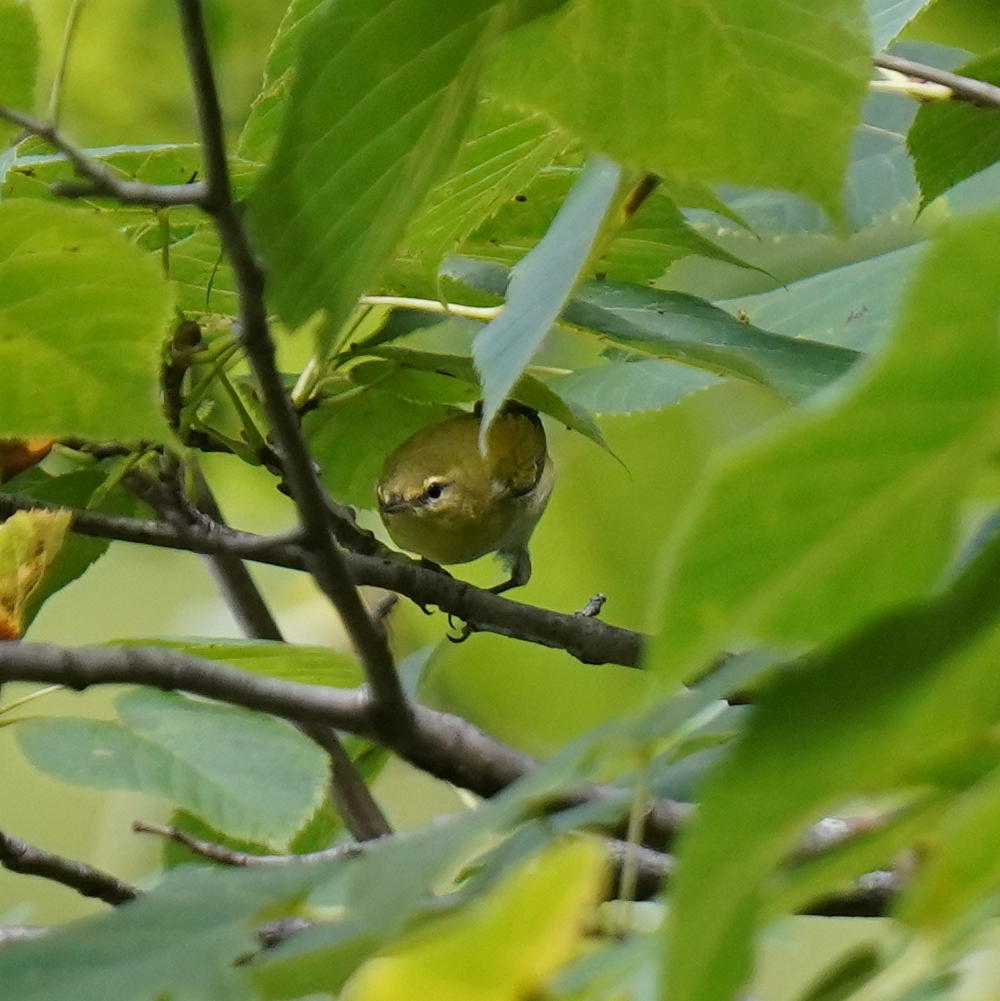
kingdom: Animalia
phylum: Chordata
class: Aves
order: Passeriformes
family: Parulidae
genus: Leiothlypis
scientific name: Leiothlypis peregrina
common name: Tennessee warbler
